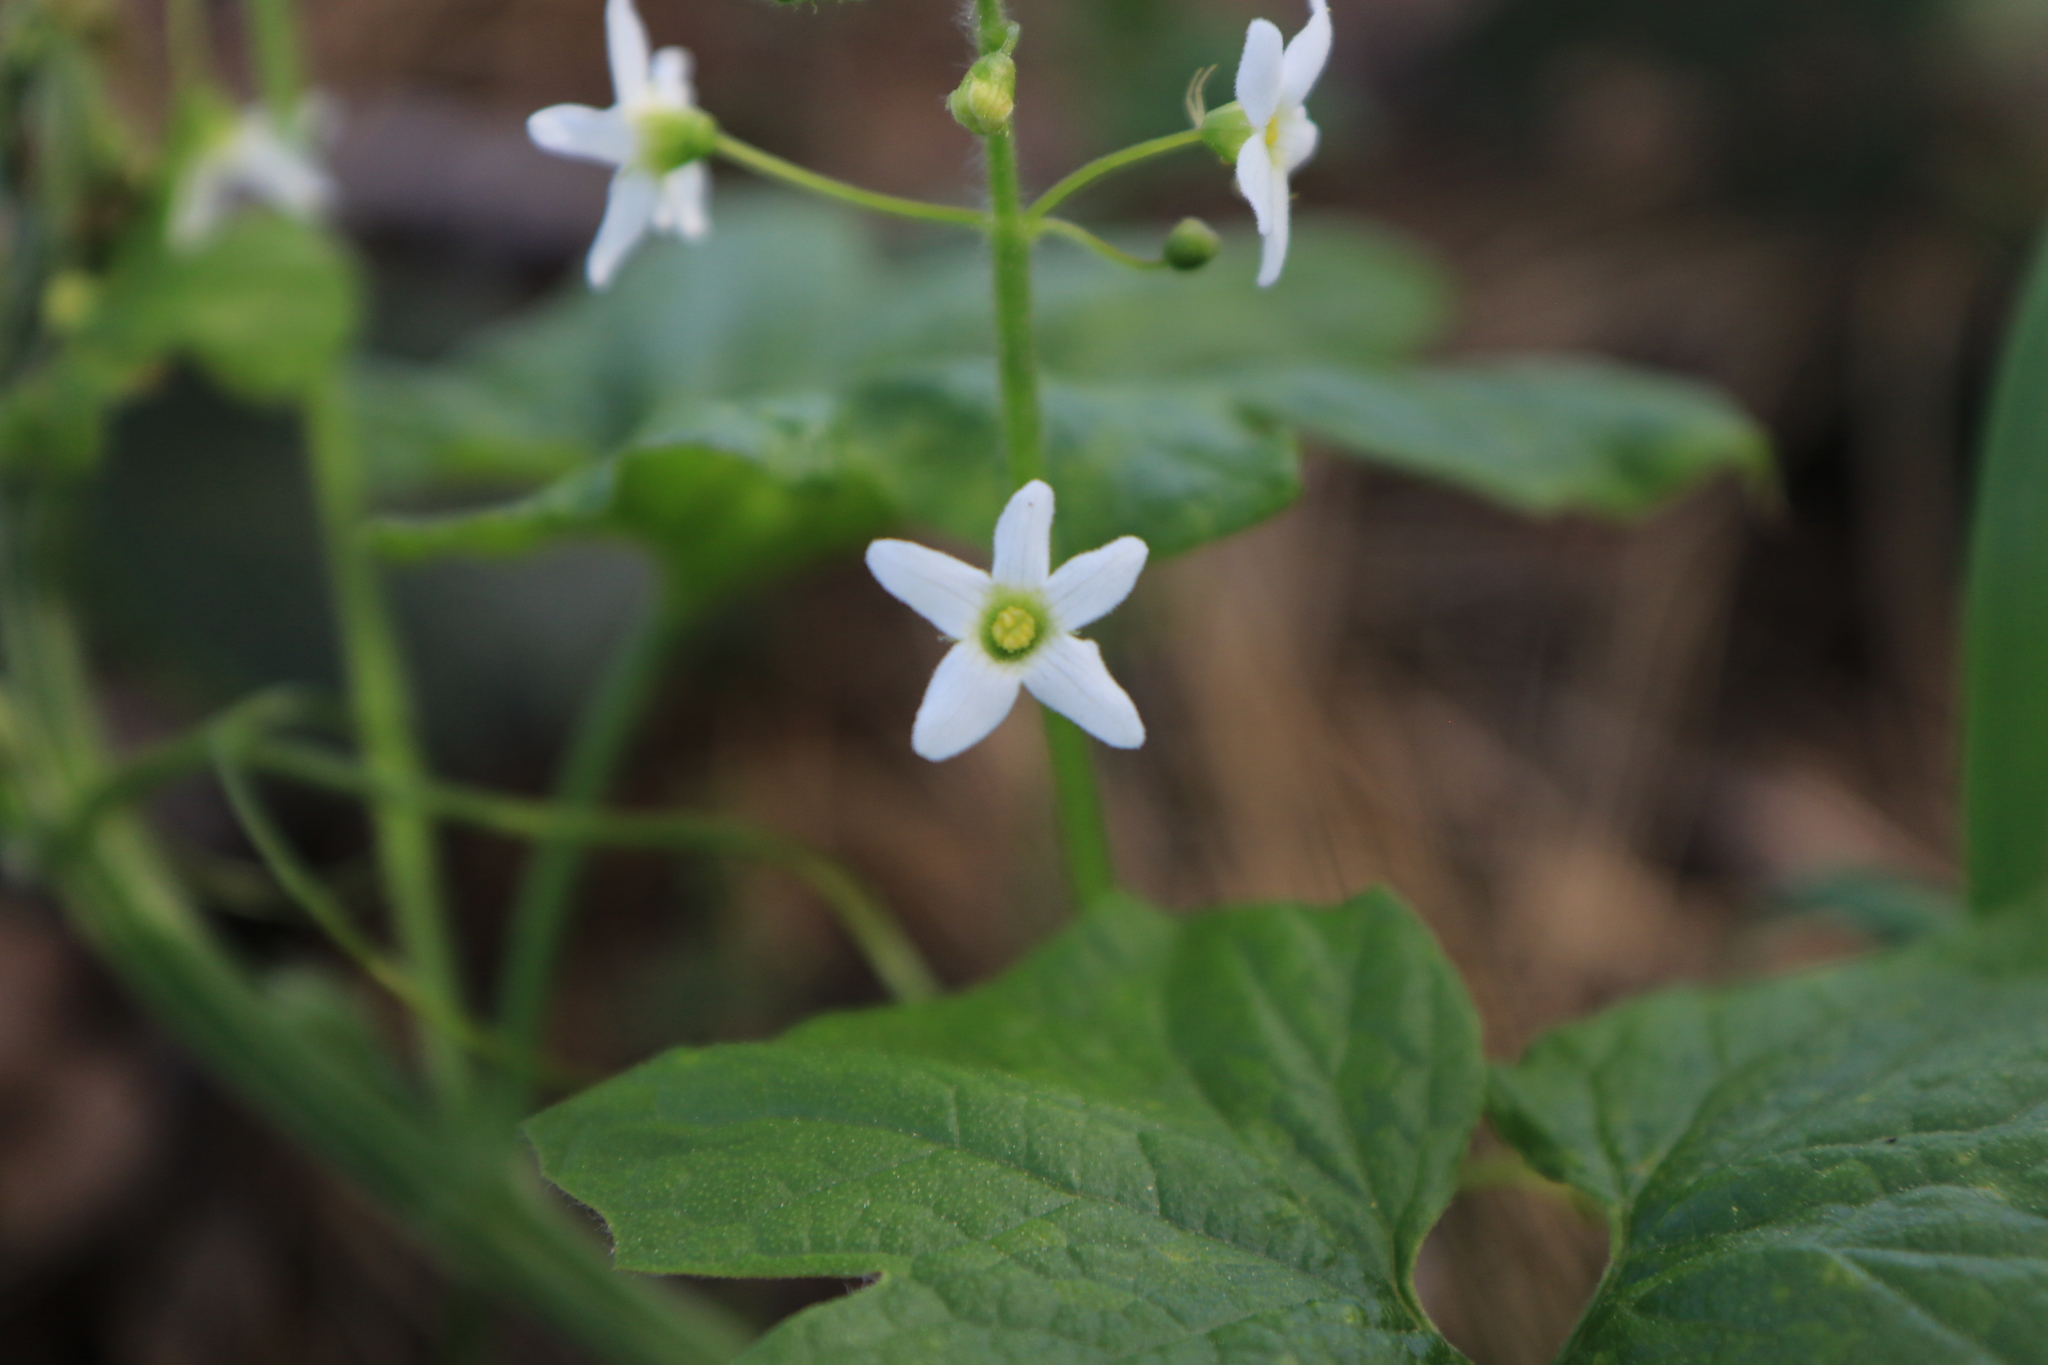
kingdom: Plantae
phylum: Tracheophyta
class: Magnoliopsida
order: Cucurbitales
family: Cucurbitaceae
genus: Marah
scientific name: Marah oregana
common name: Coastal manroot
